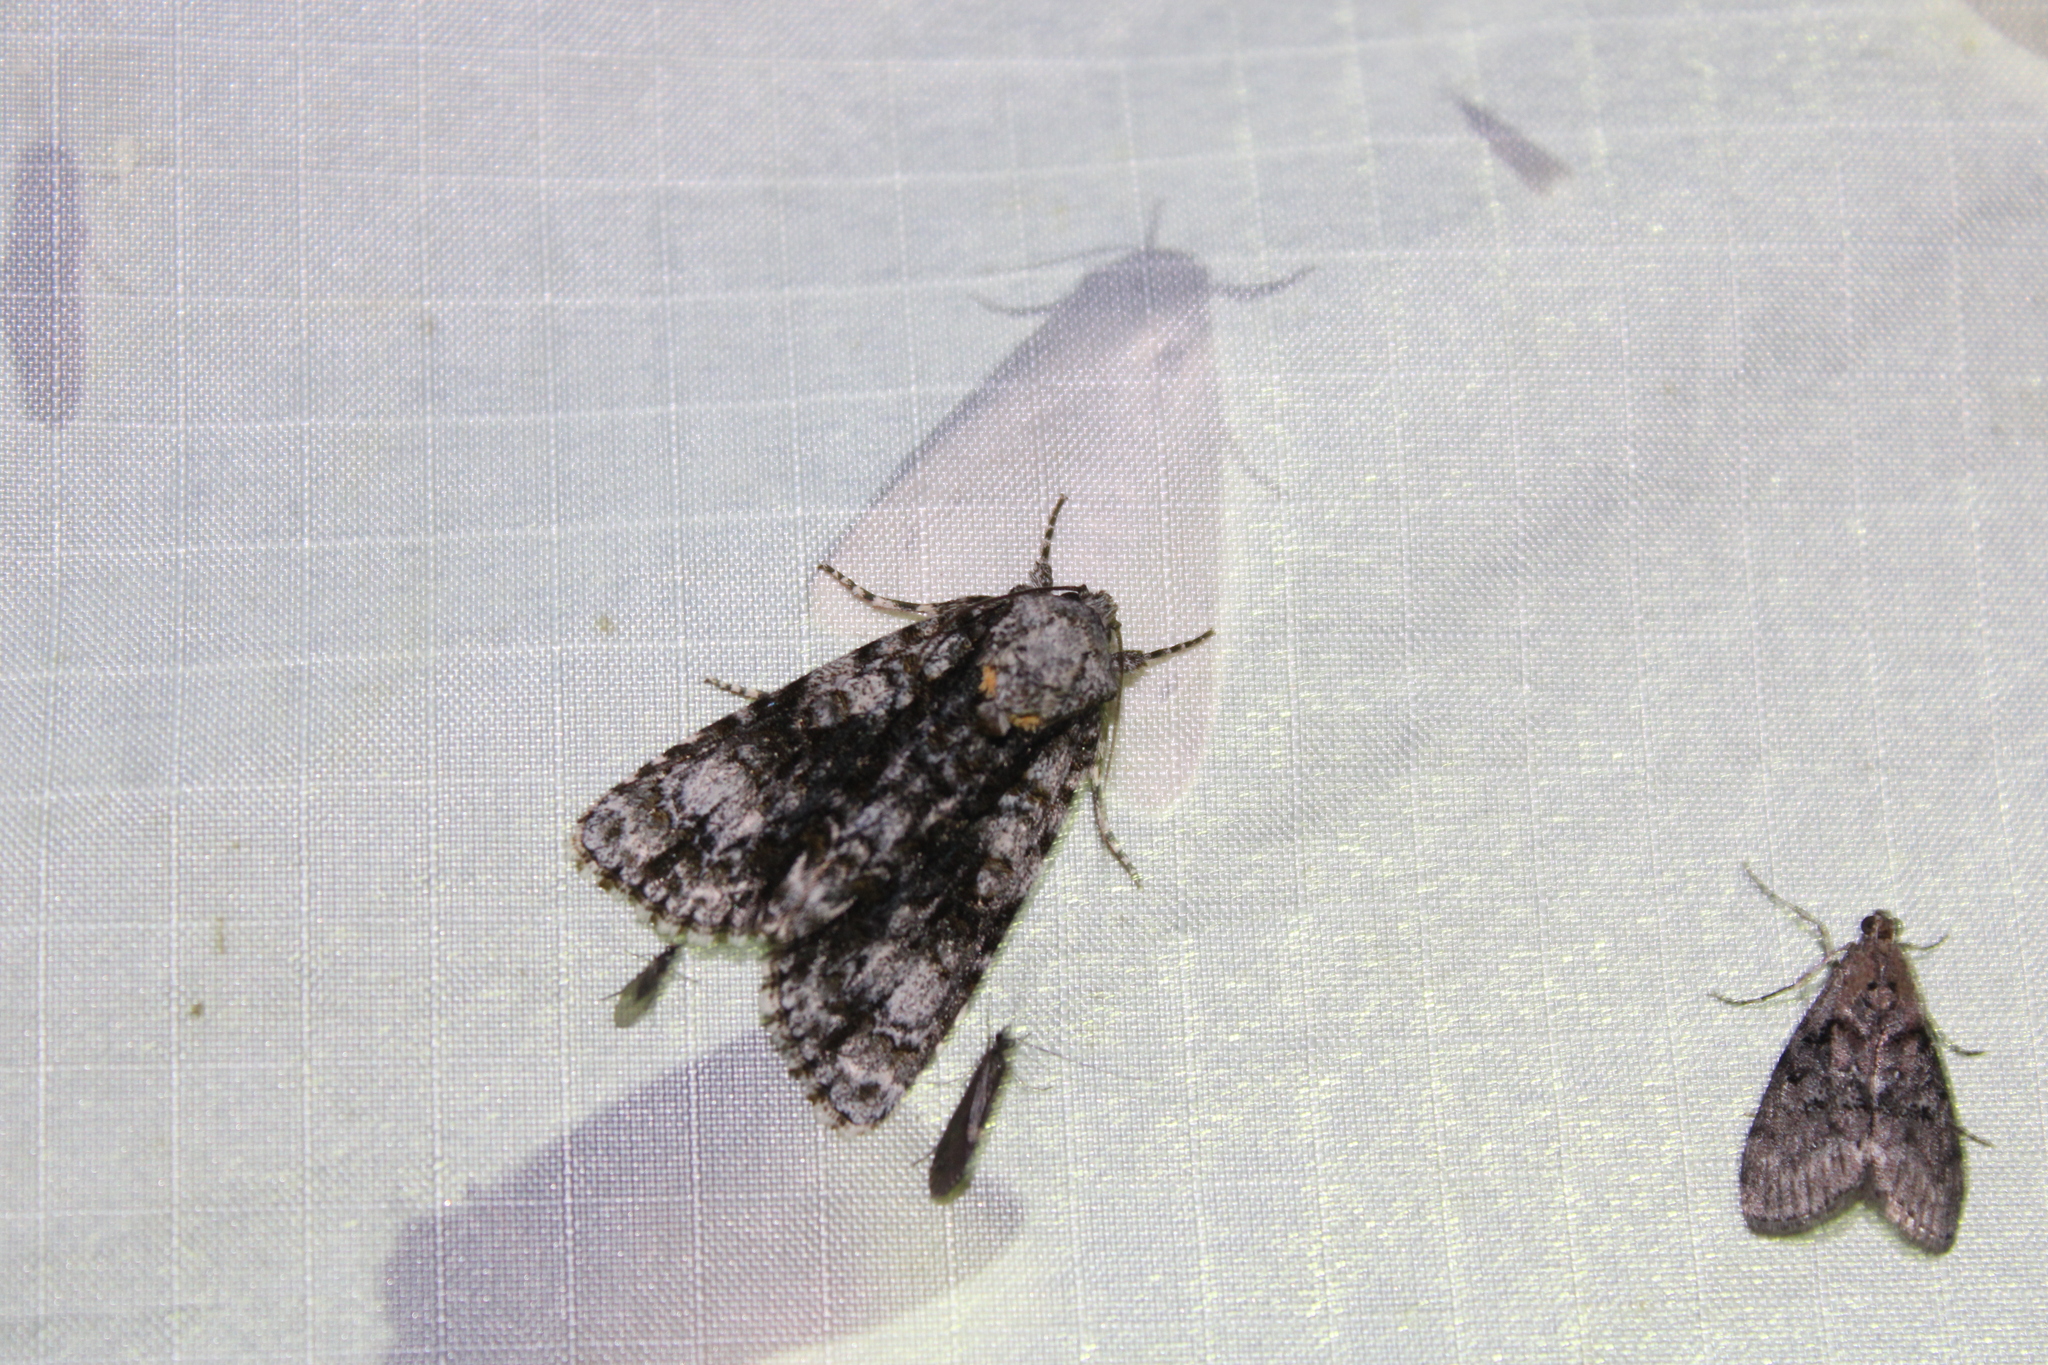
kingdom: Animalia
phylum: Arthropoda
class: Insecta
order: Lepidoptera
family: Noctuidae
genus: Acronicta
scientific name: Acronicta superans
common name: Splendid dagger
